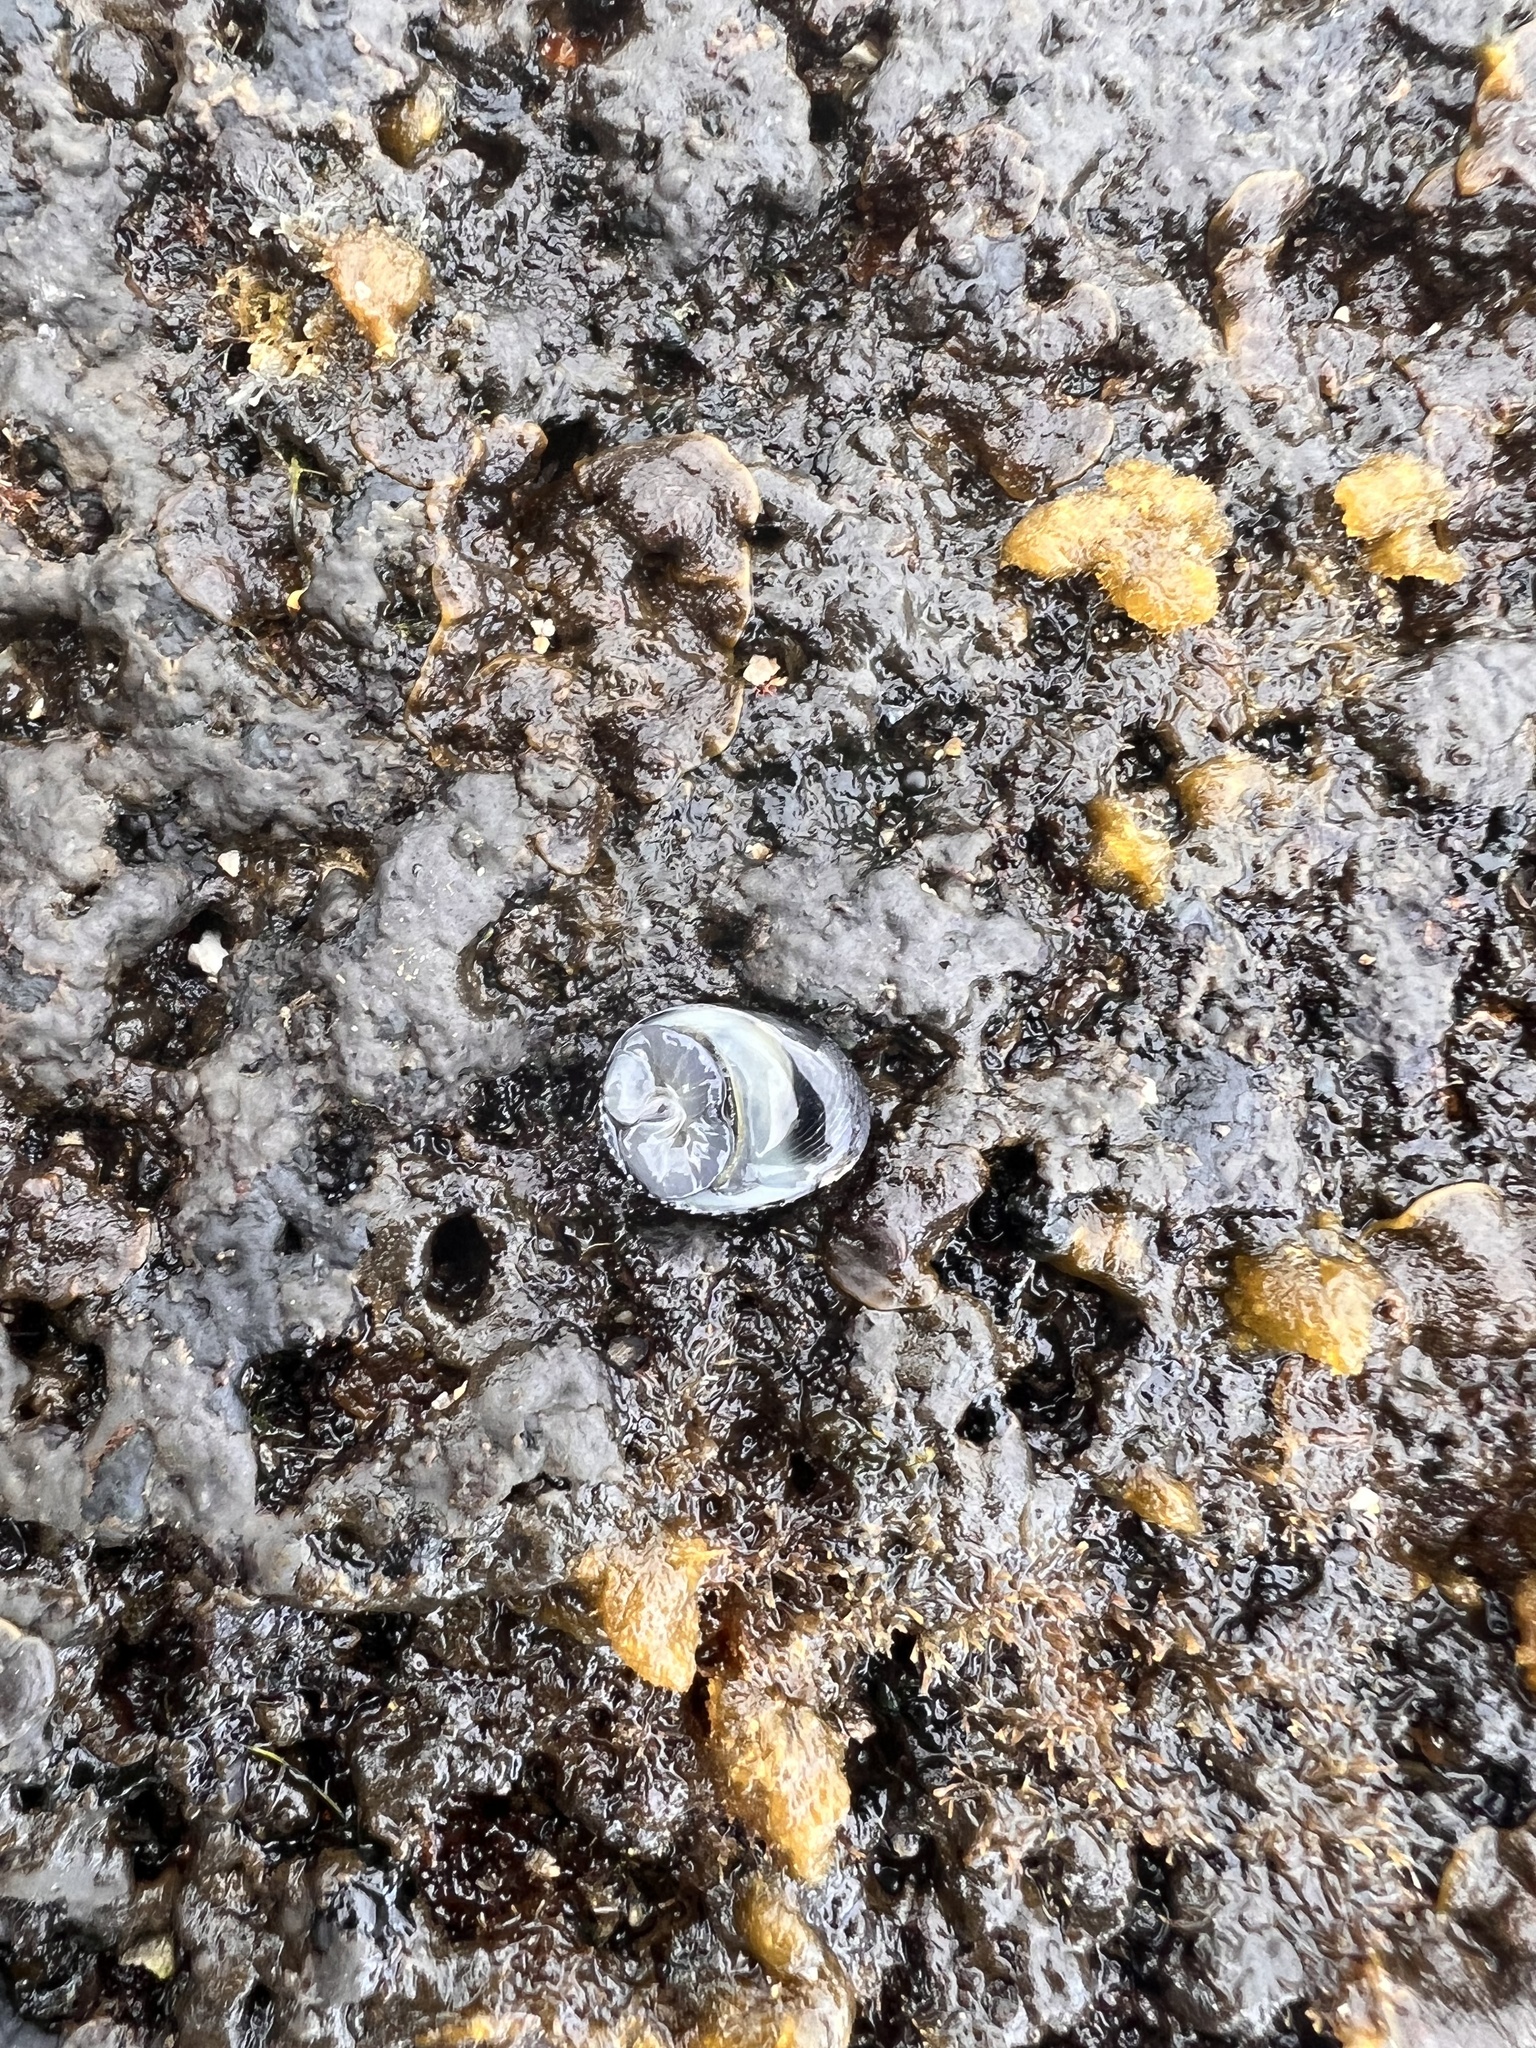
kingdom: Animalia
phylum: Mollusca
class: Gastropoda
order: Cycloneritida
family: Neritidae
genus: Nerita
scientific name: Nerita picea
